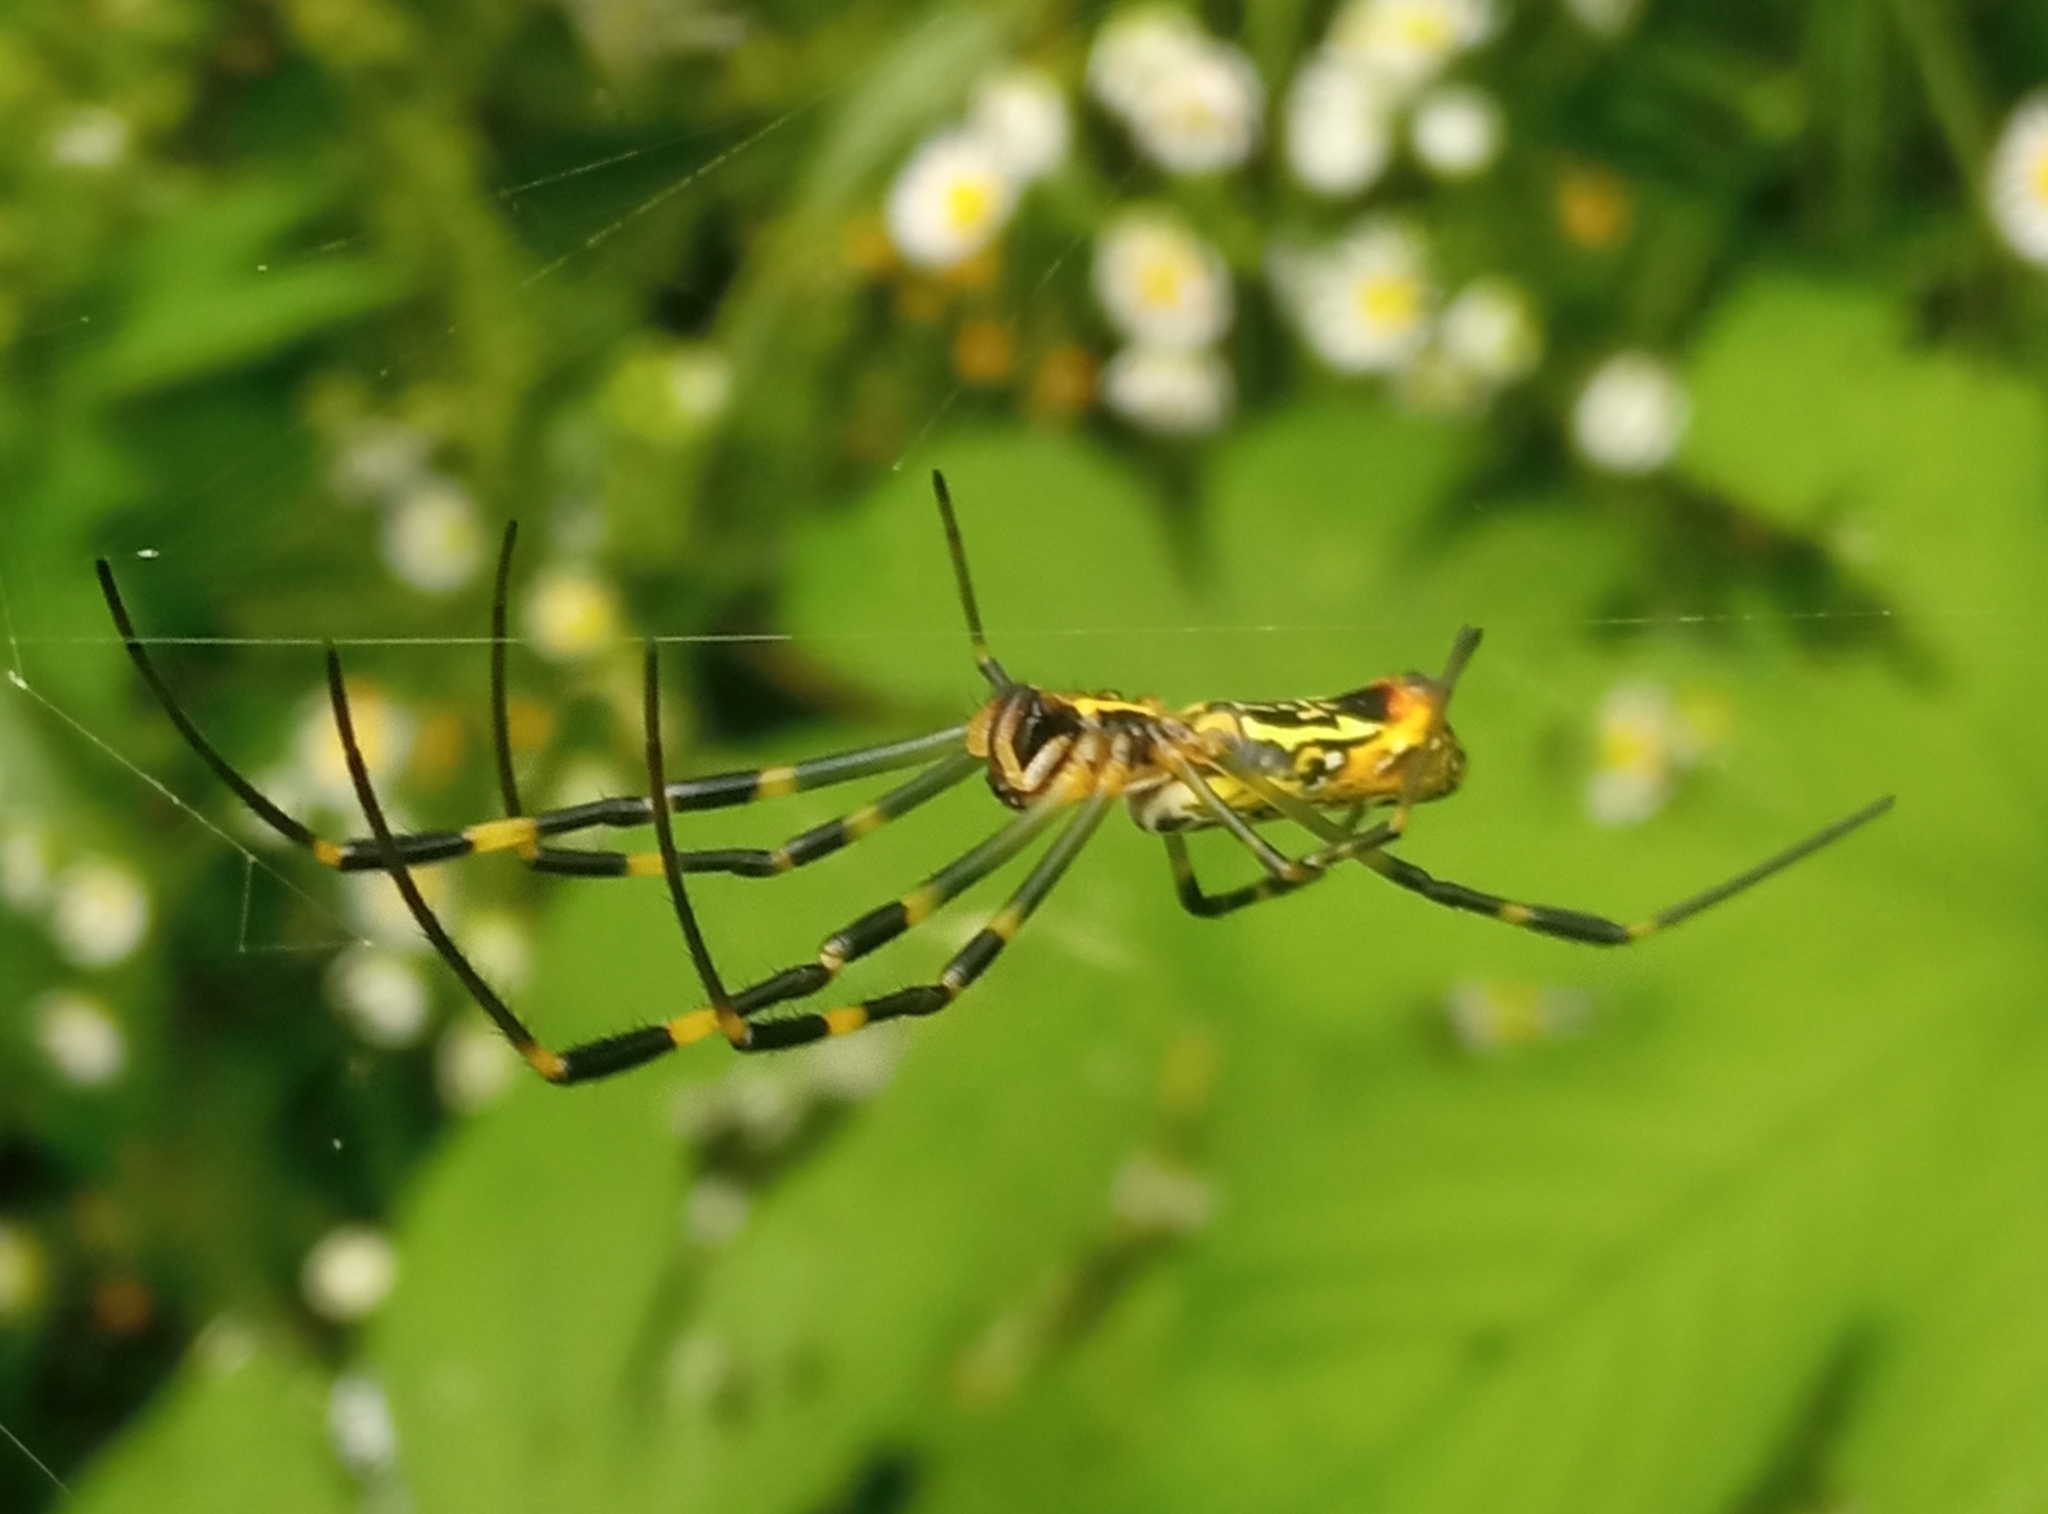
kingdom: Animalia
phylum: Arthropoda
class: Arachnida
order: Araneae
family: Araneidae
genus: Trichonephila
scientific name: Trichonephila clavata
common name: Jorō spider
